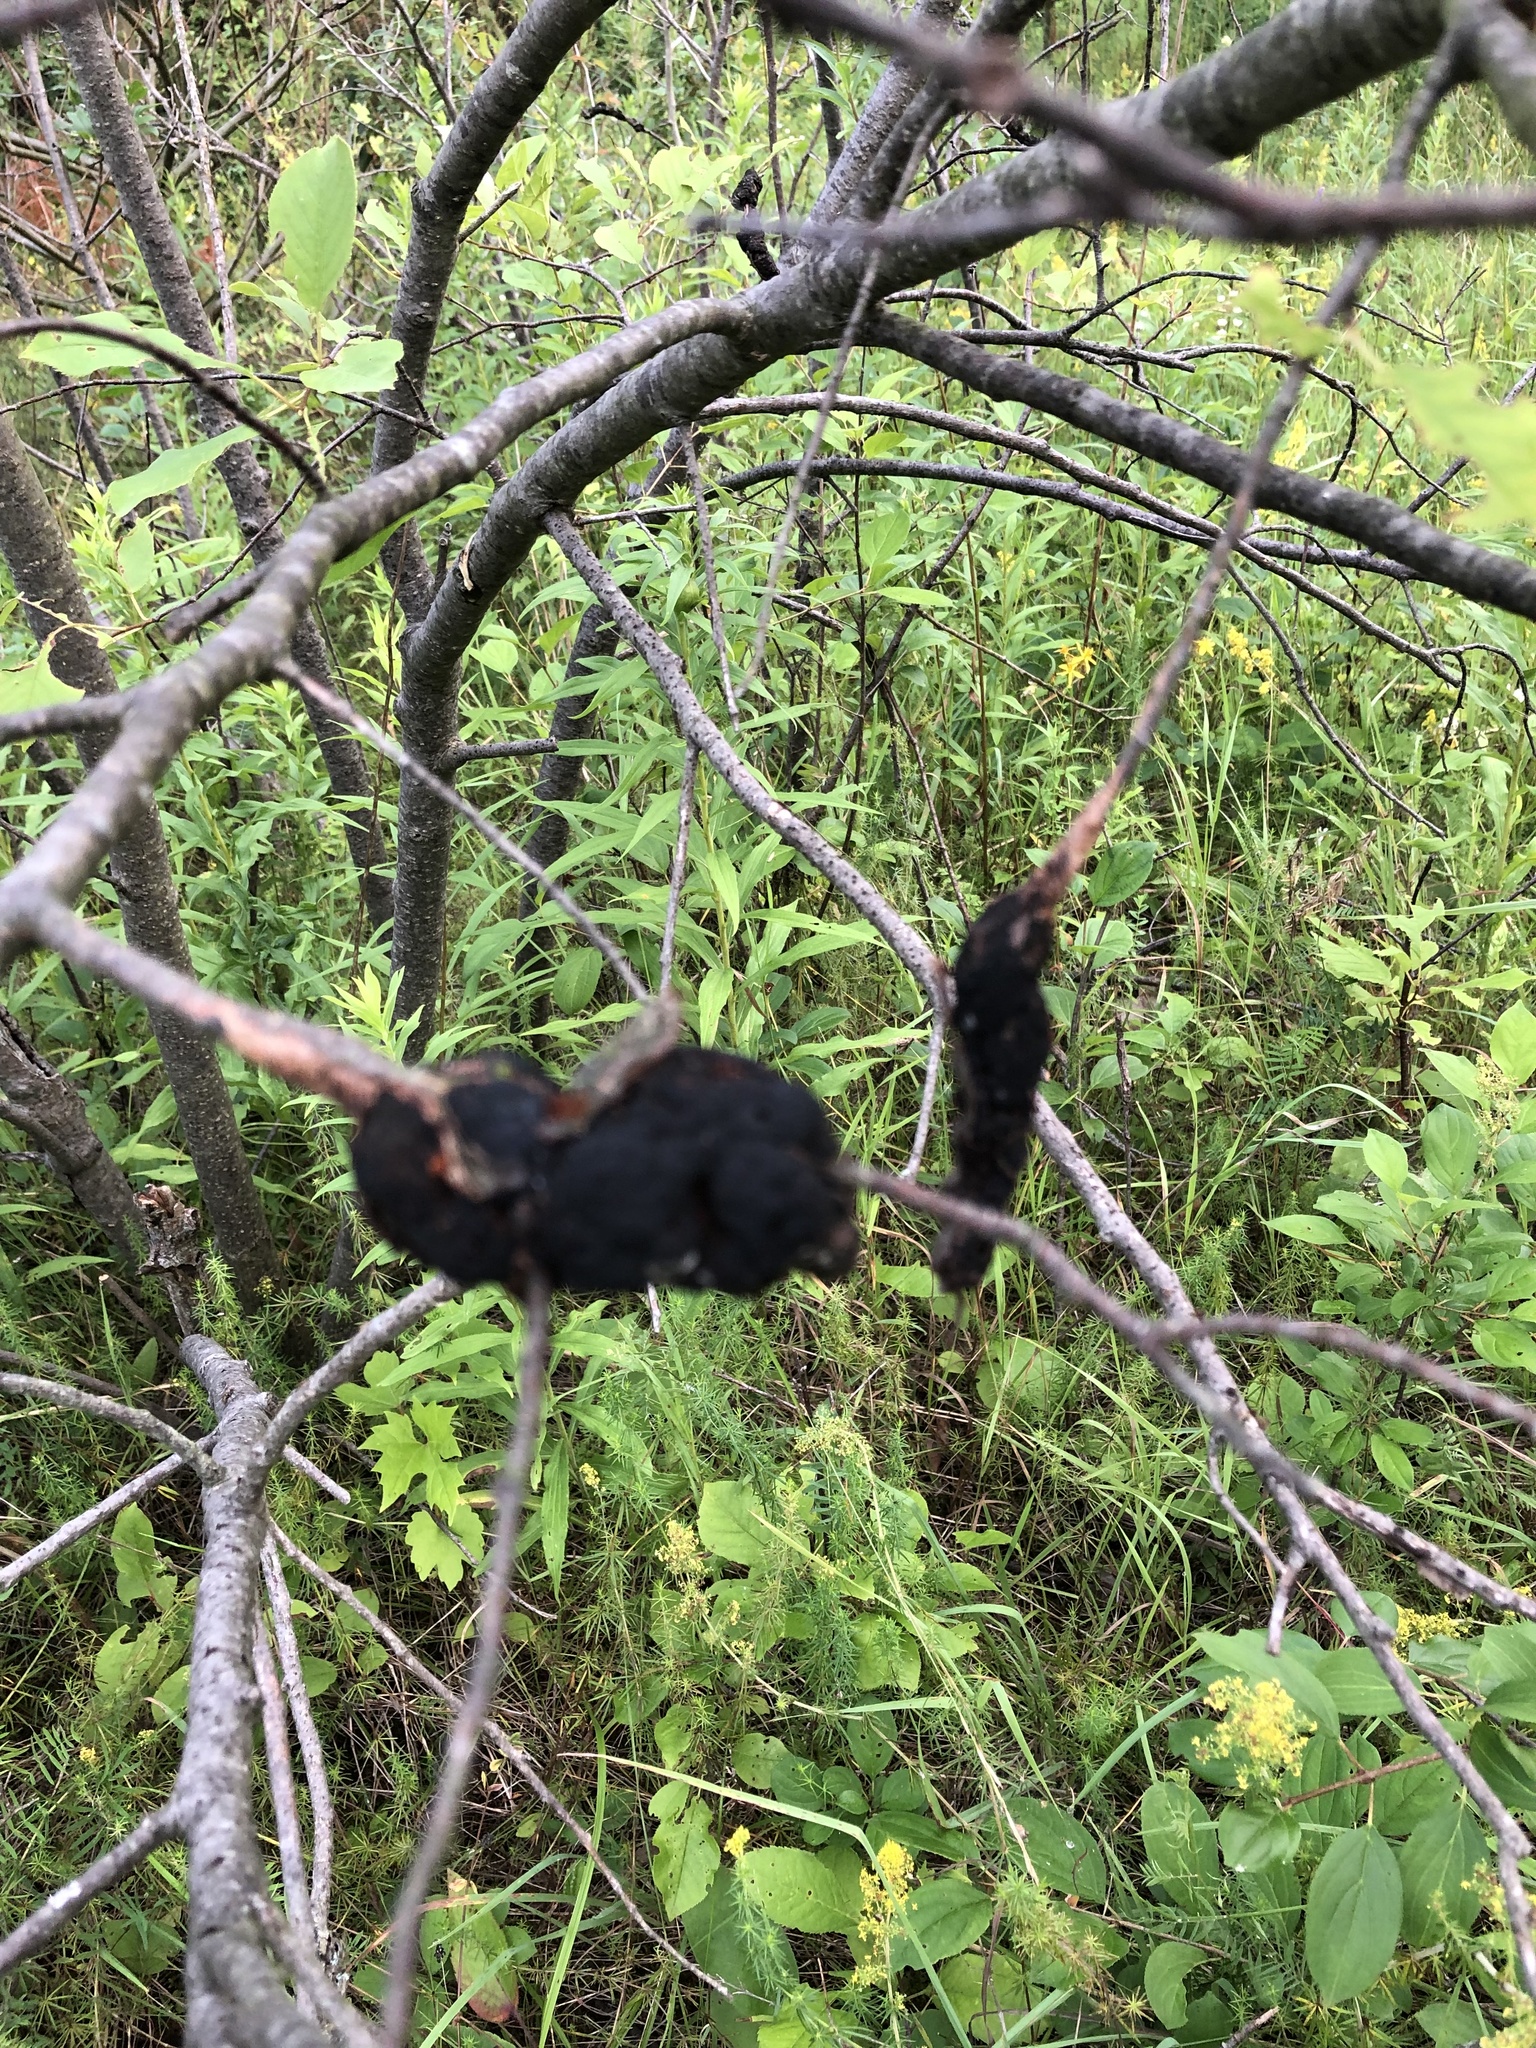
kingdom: Fungi
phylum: Ascomycota
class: Dothideomycetes
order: Venturiales
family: Venturiaceae
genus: Apiosporina
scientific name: Apiosporina morbosa
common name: Black knot
